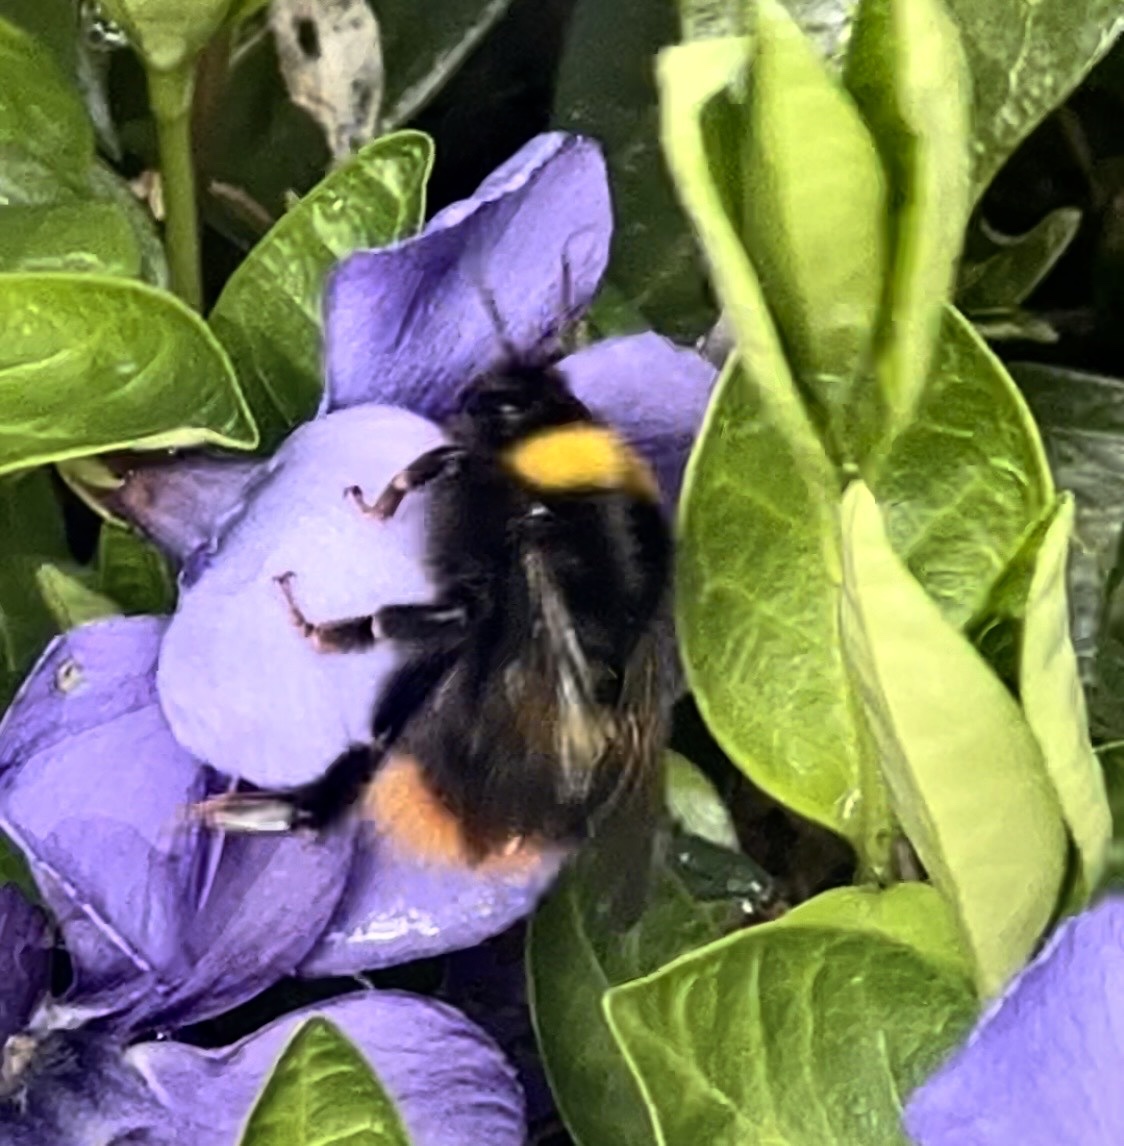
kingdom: Animalia
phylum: Arthropoda
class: Insecta
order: Hymenoptera
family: Apidae
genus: Bombus
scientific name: Bombus pratorum
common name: Early humble-bee
